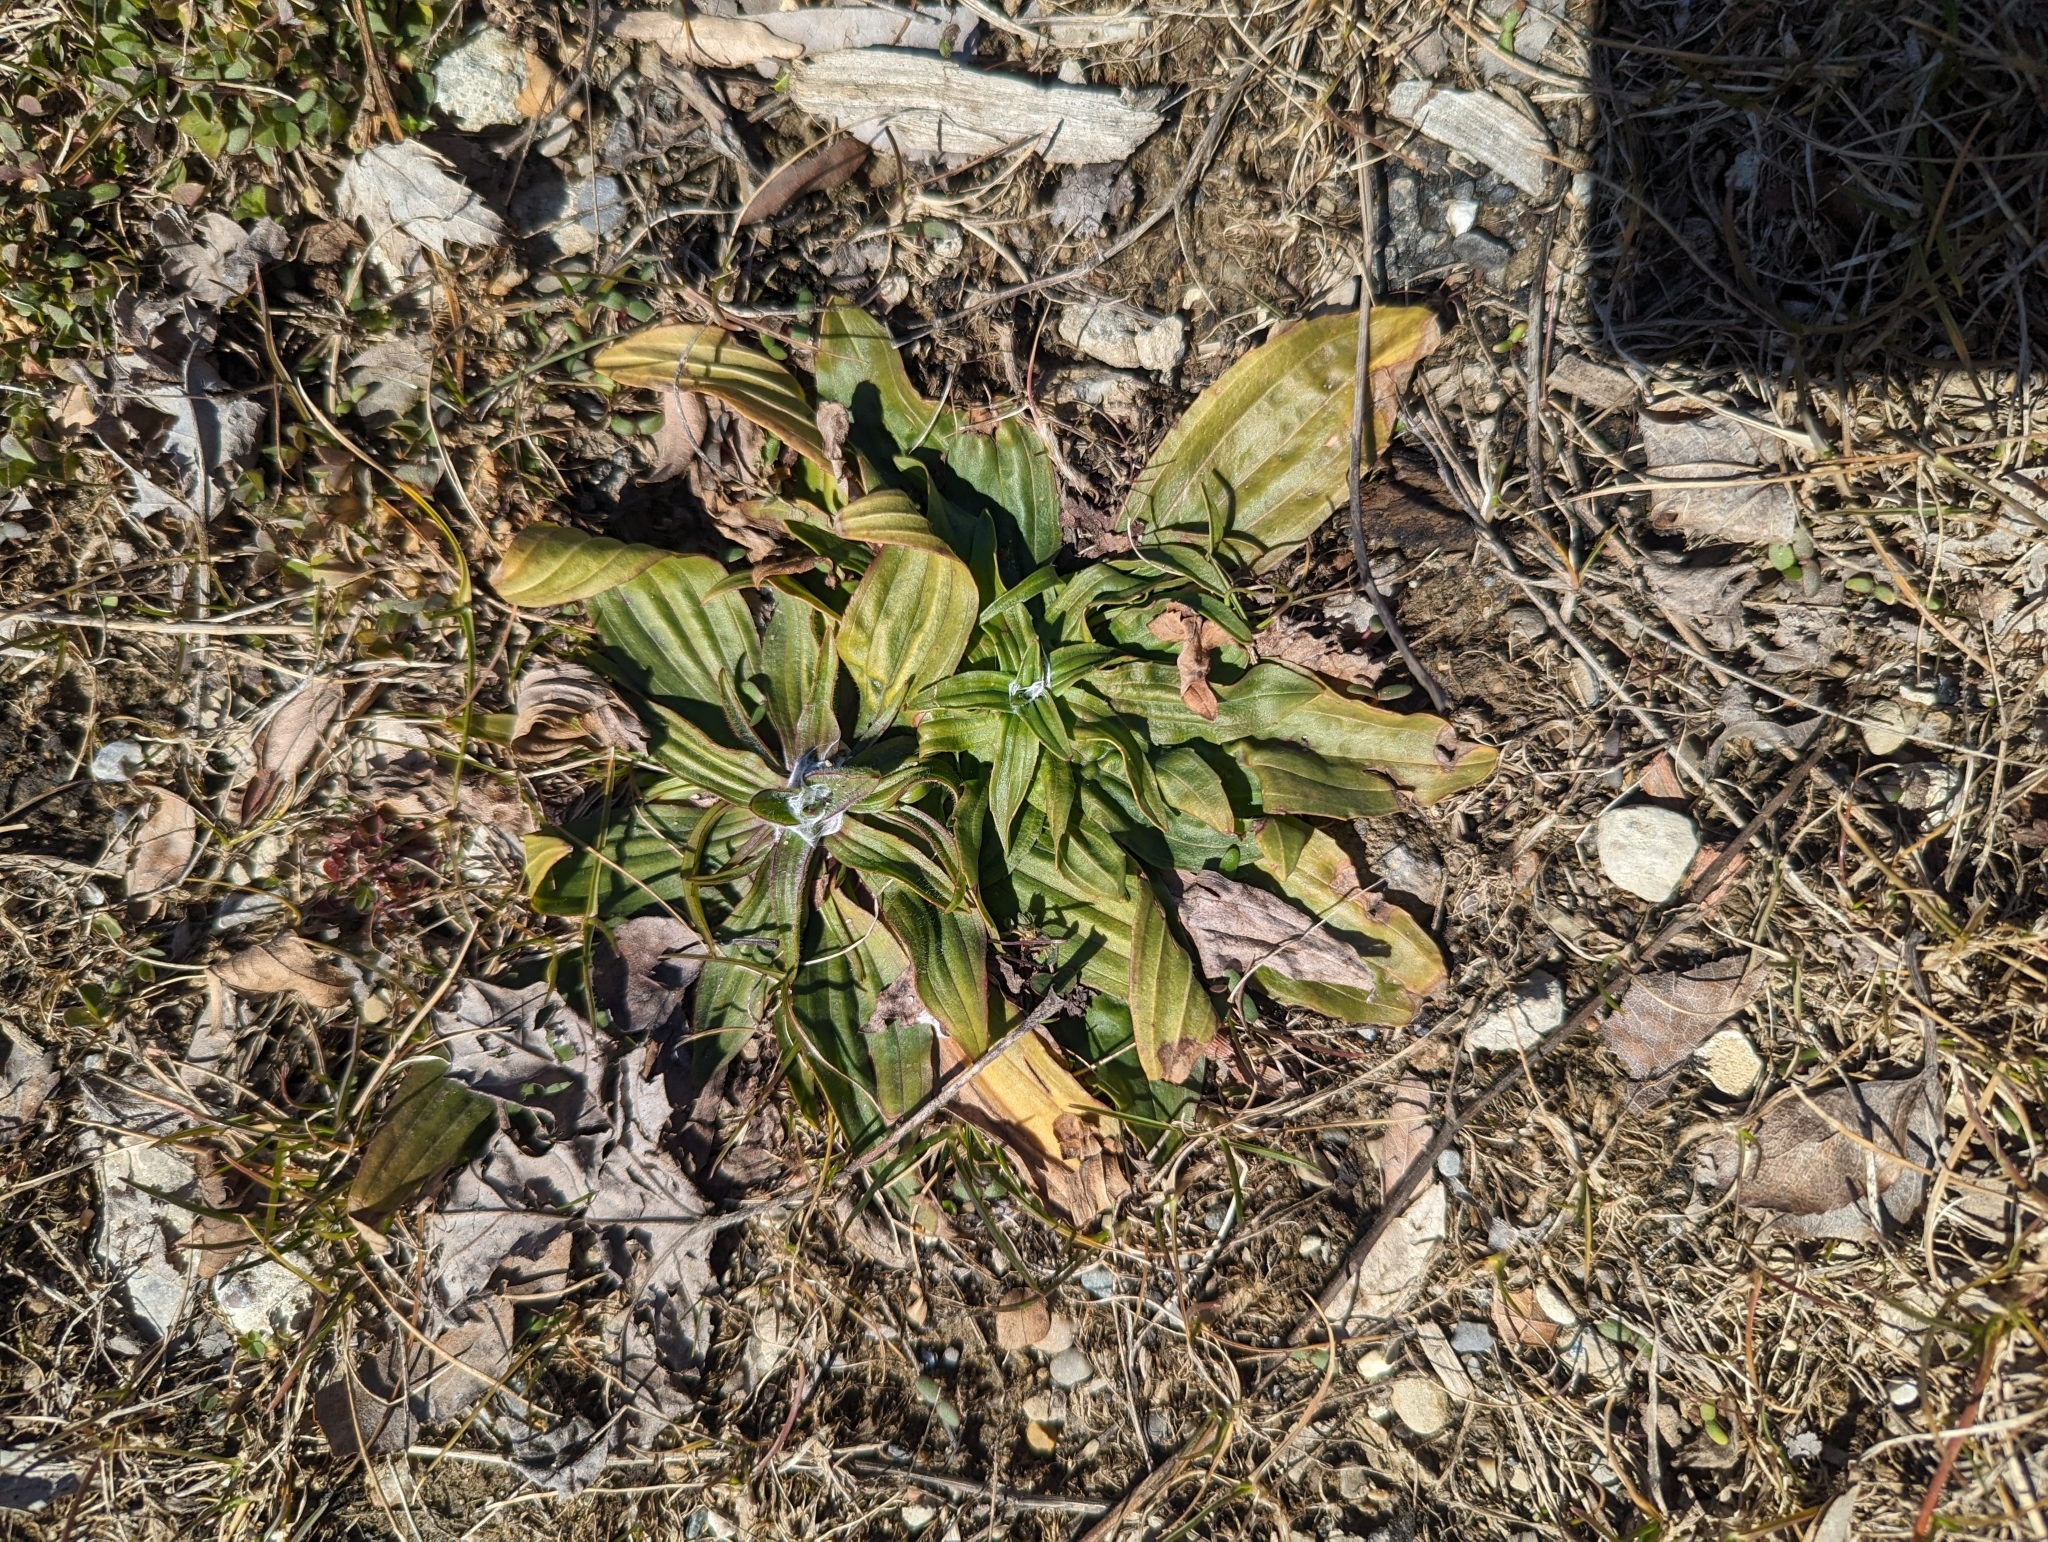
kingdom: Plantae
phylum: Tracheophyta
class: Magnoliopsida
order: Lamiales
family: Plantaginaceae
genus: Plantago
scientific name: Plantago lanceolata
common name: Ribwort plantain
